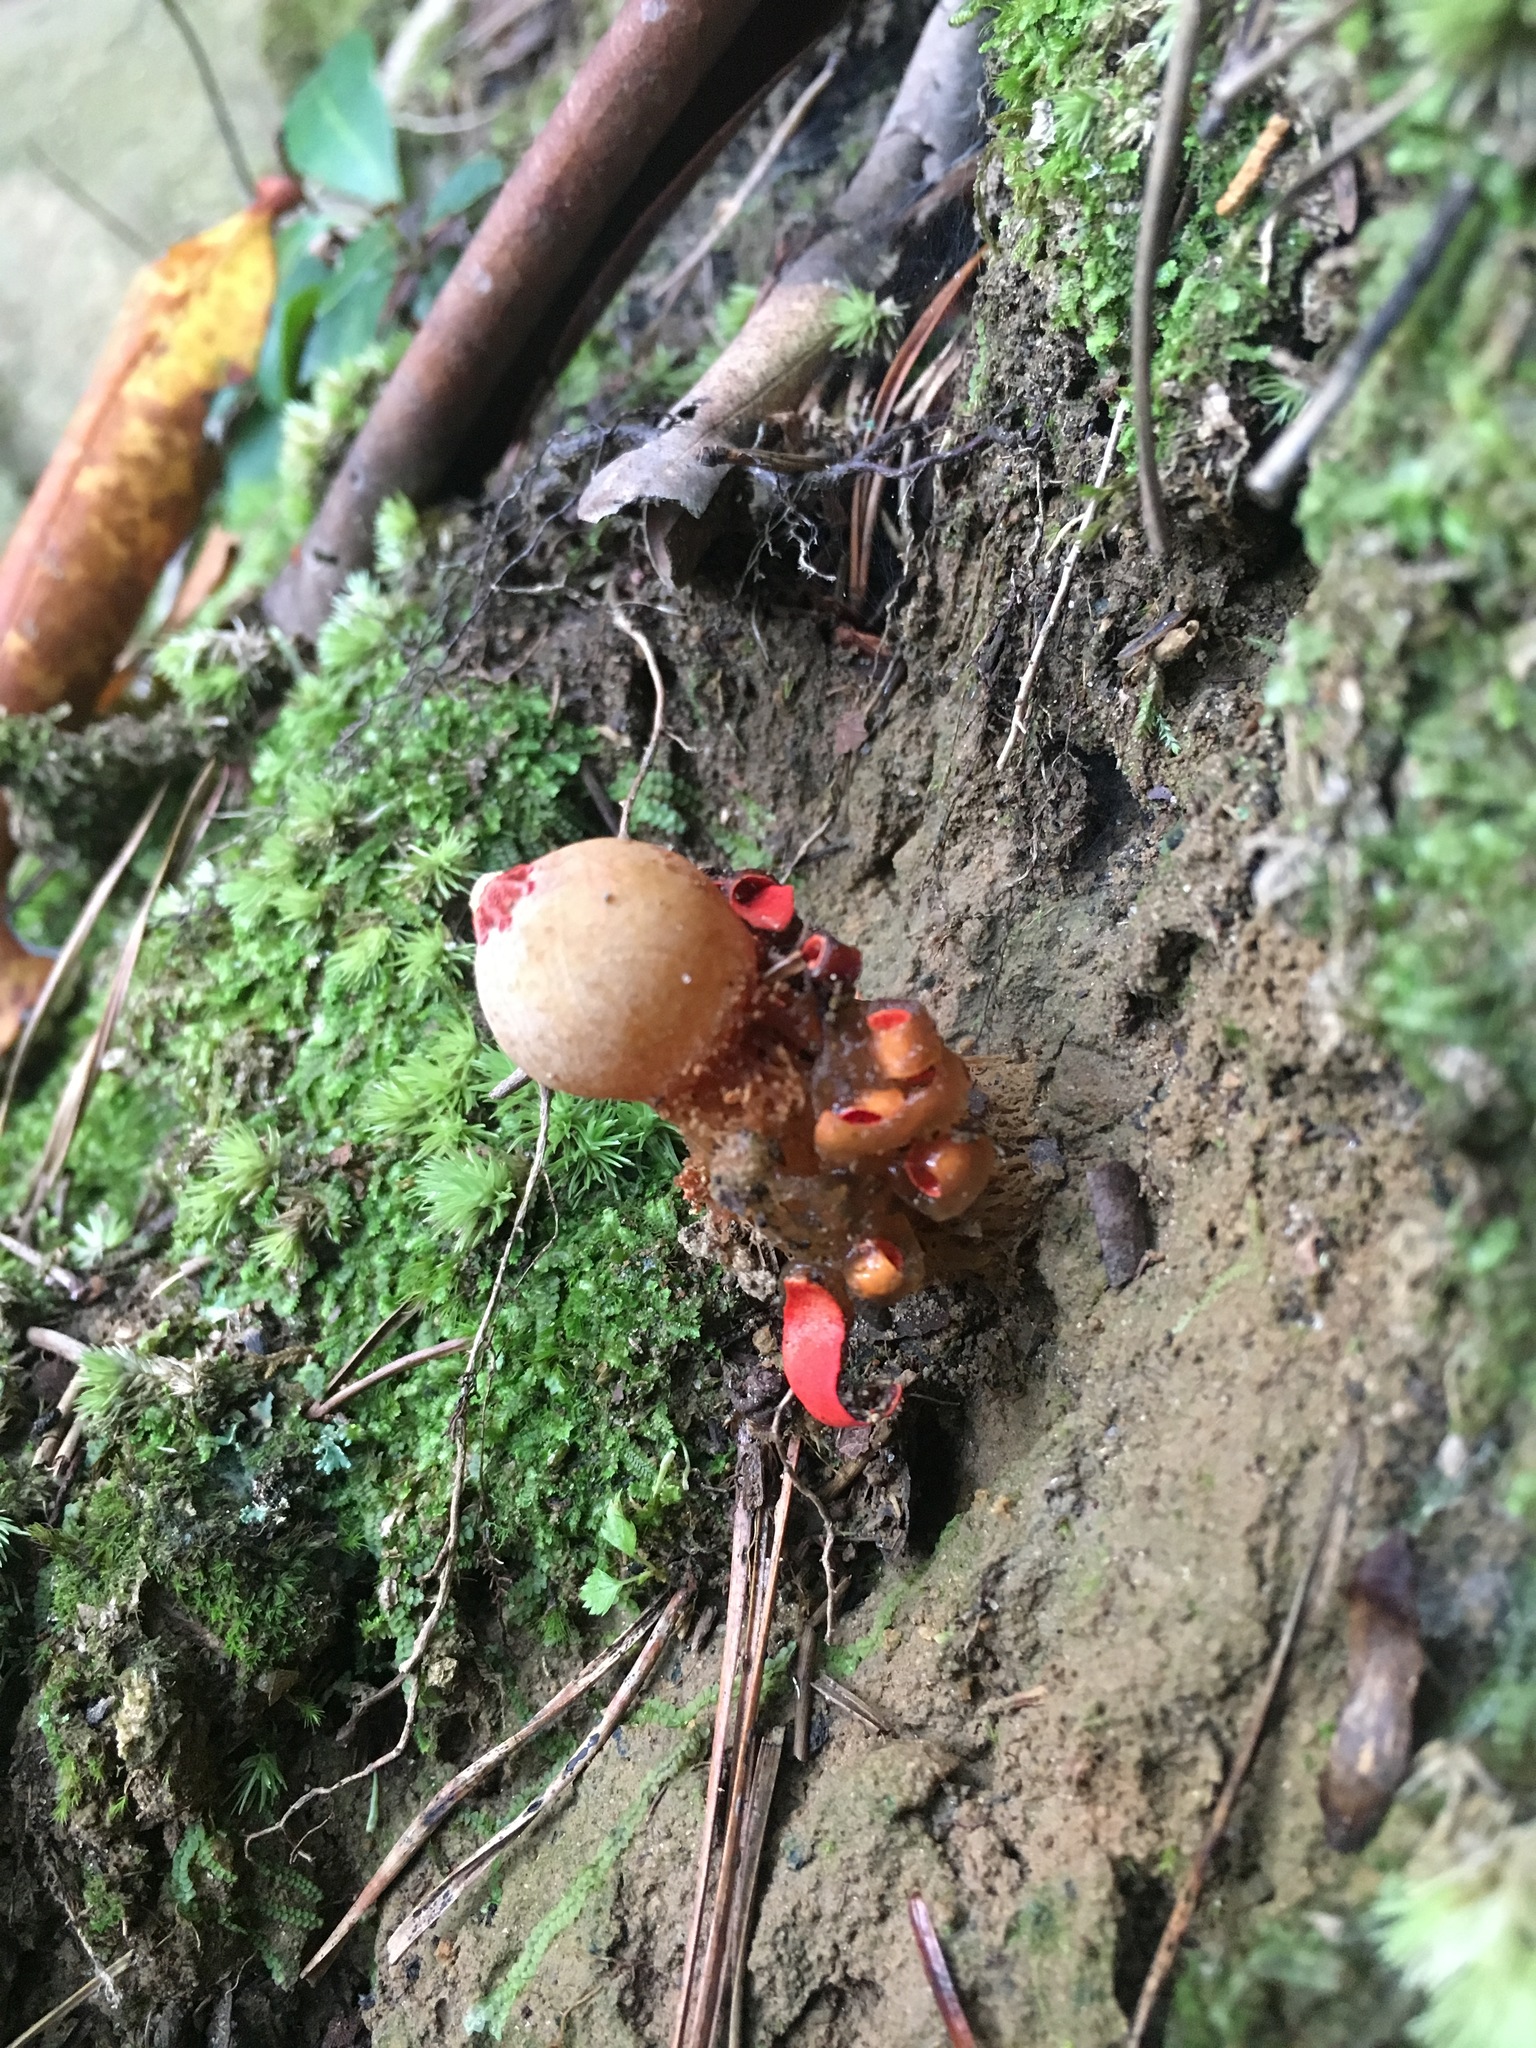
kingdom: Fungi
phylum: Basidiomycota
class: Agaricomycetes
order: Boletales
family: Calostomataceae
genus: Calostoma
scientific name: Calostoma cinnabarinum
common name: Stalked puffball-in-aspic
